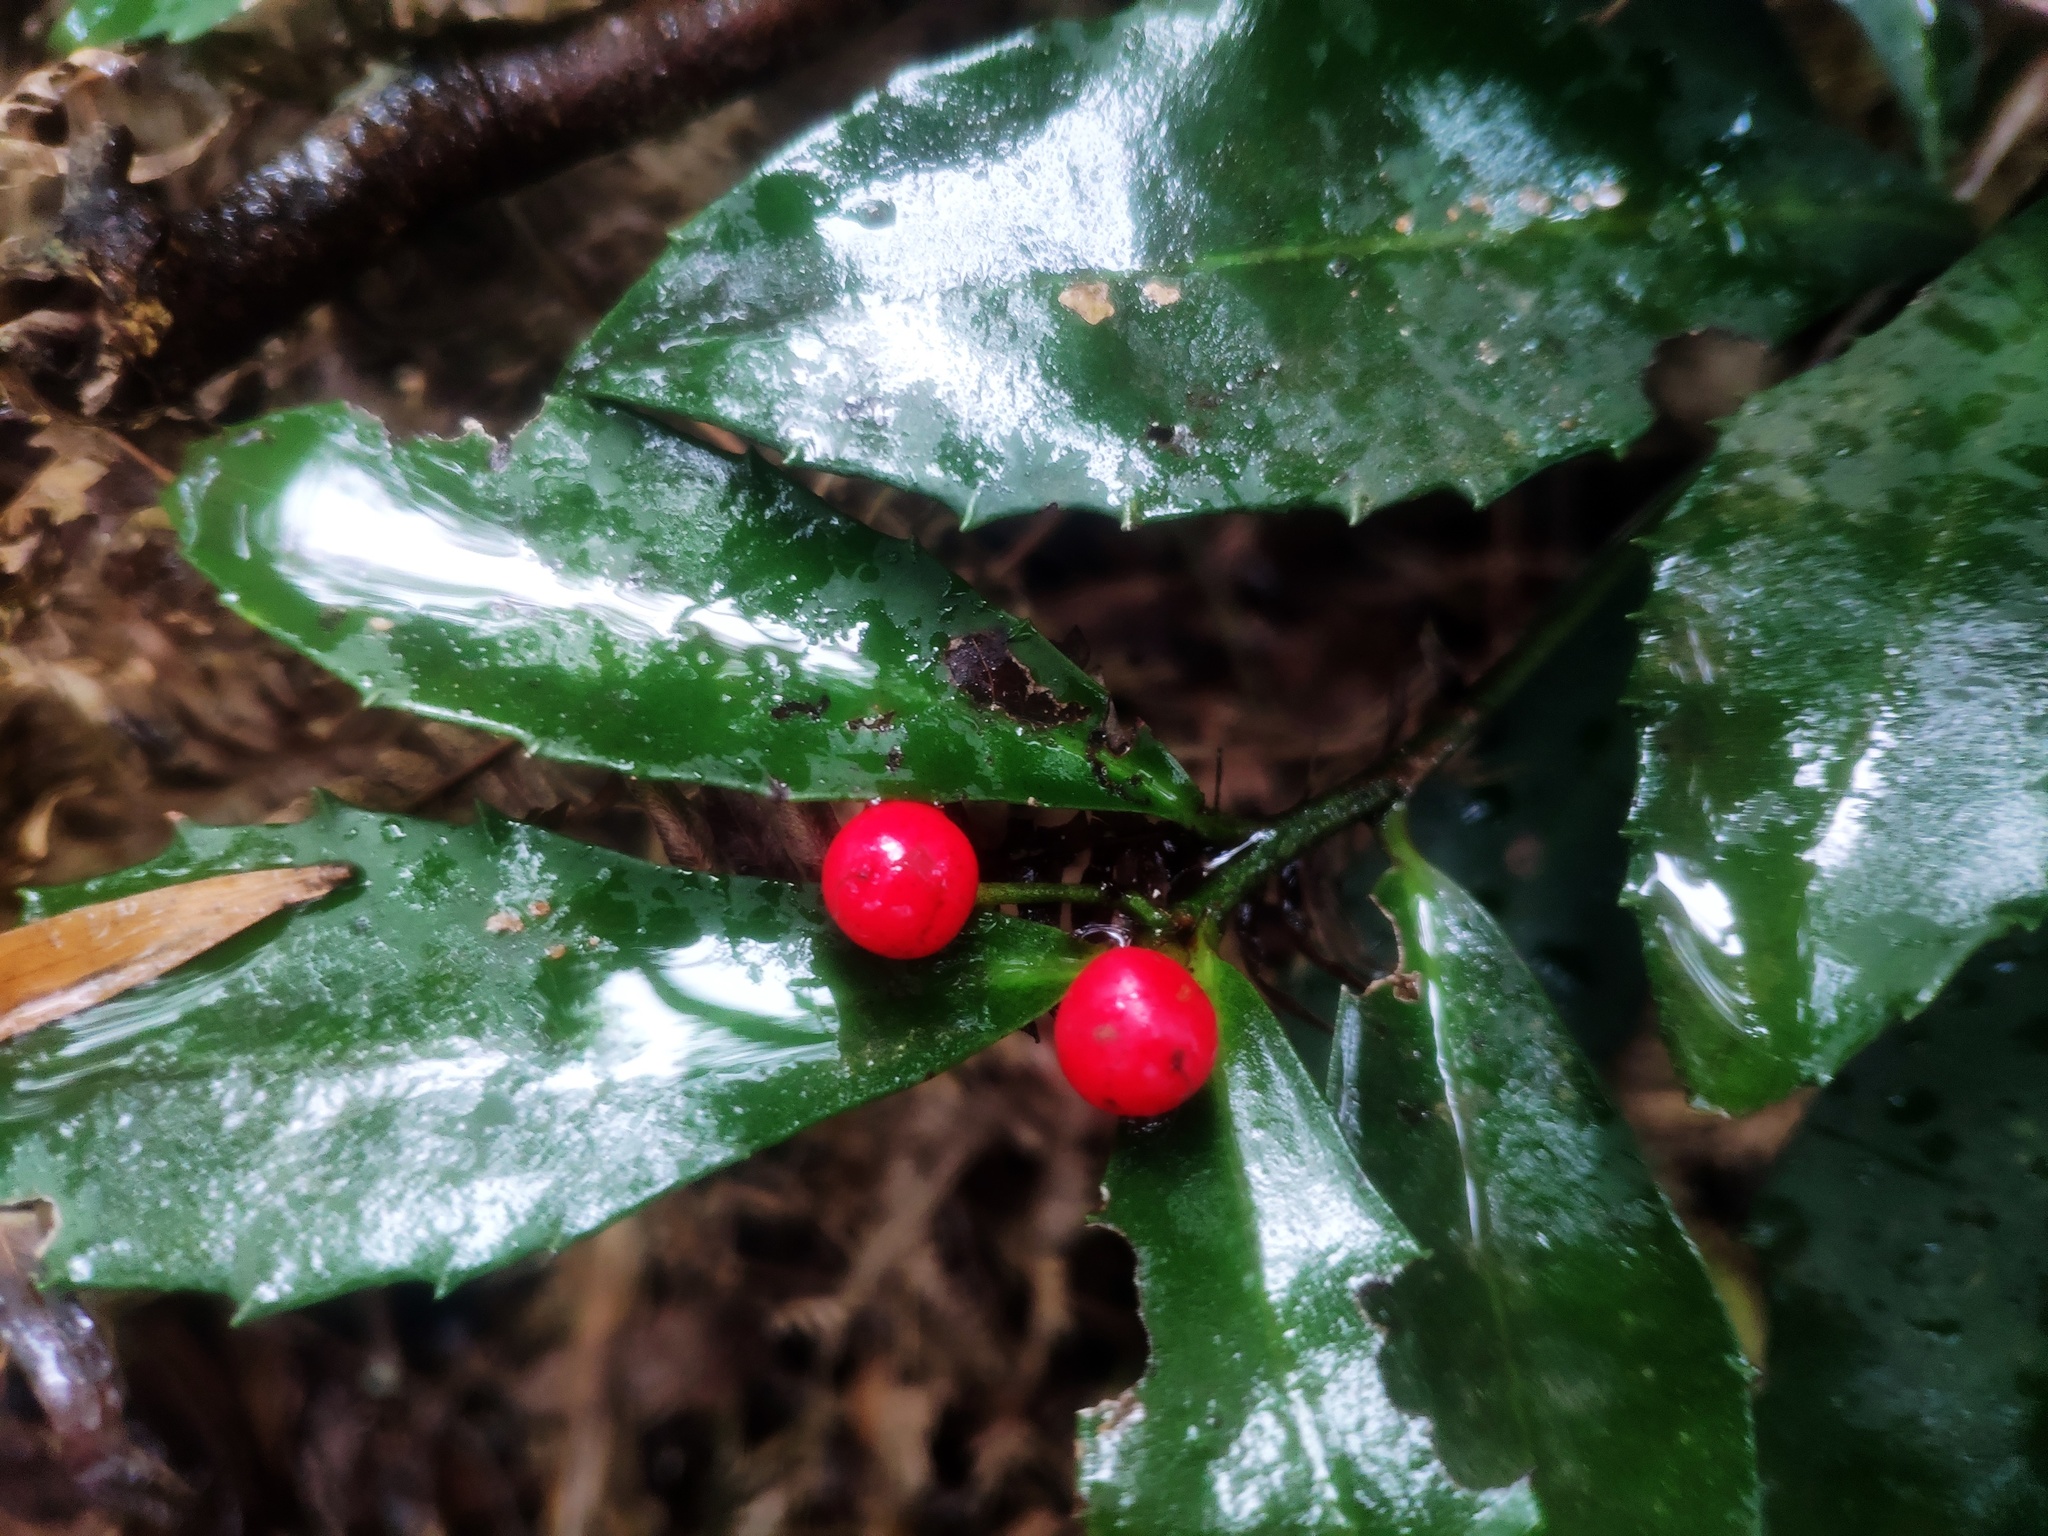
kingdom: Plantae
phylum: Tracheophyta
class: Magnoliopsida
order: Ericales
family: Primulaceae
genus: Ardisia
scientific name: Ardisia cornudentata
